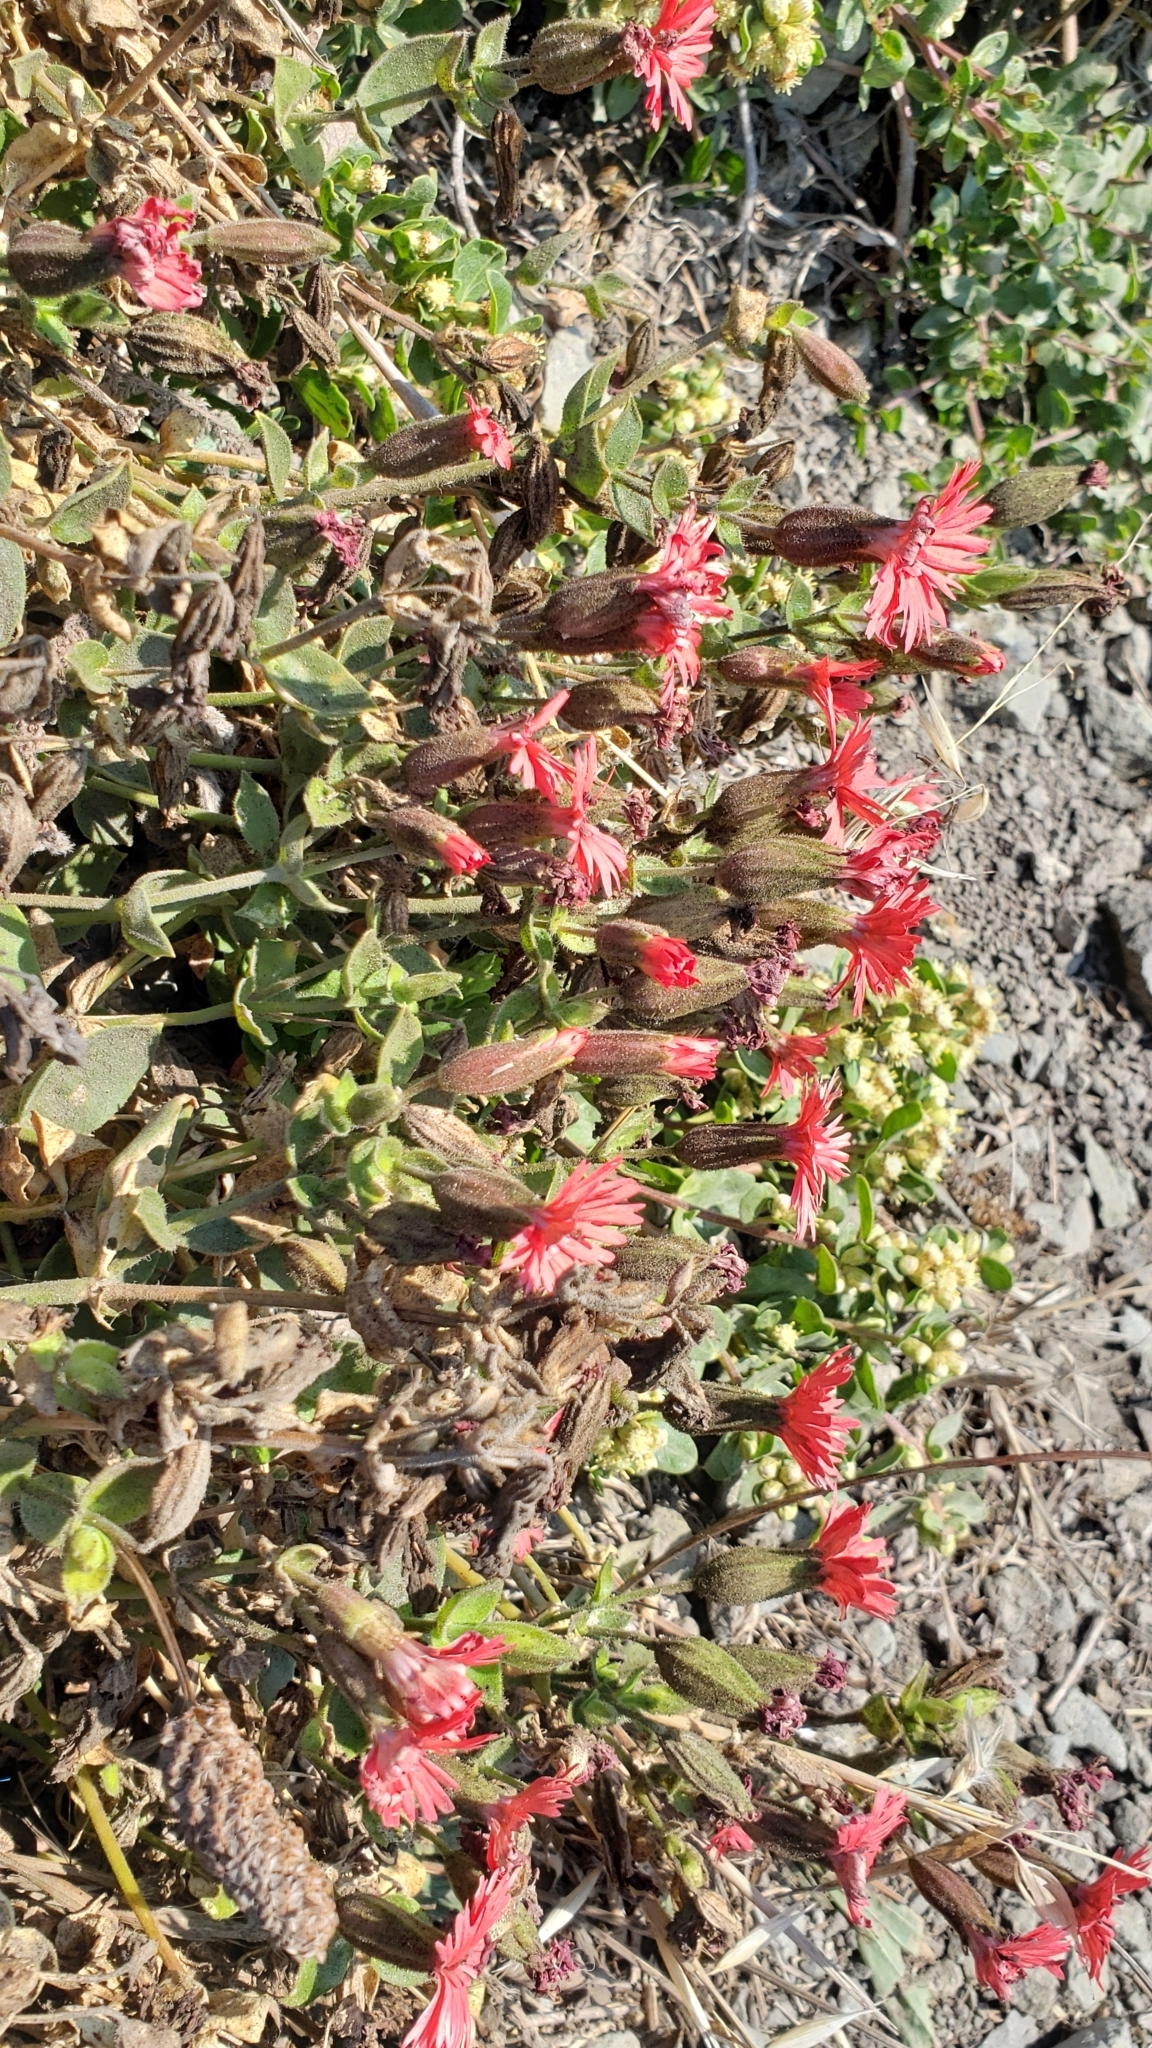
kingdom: Plantae
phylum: Tracheophyta
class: Magnoliopsida
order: Caryophyllales
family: Caryophyllaceae
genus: Silene
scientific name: Silene laciniata
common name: Indian-pink
